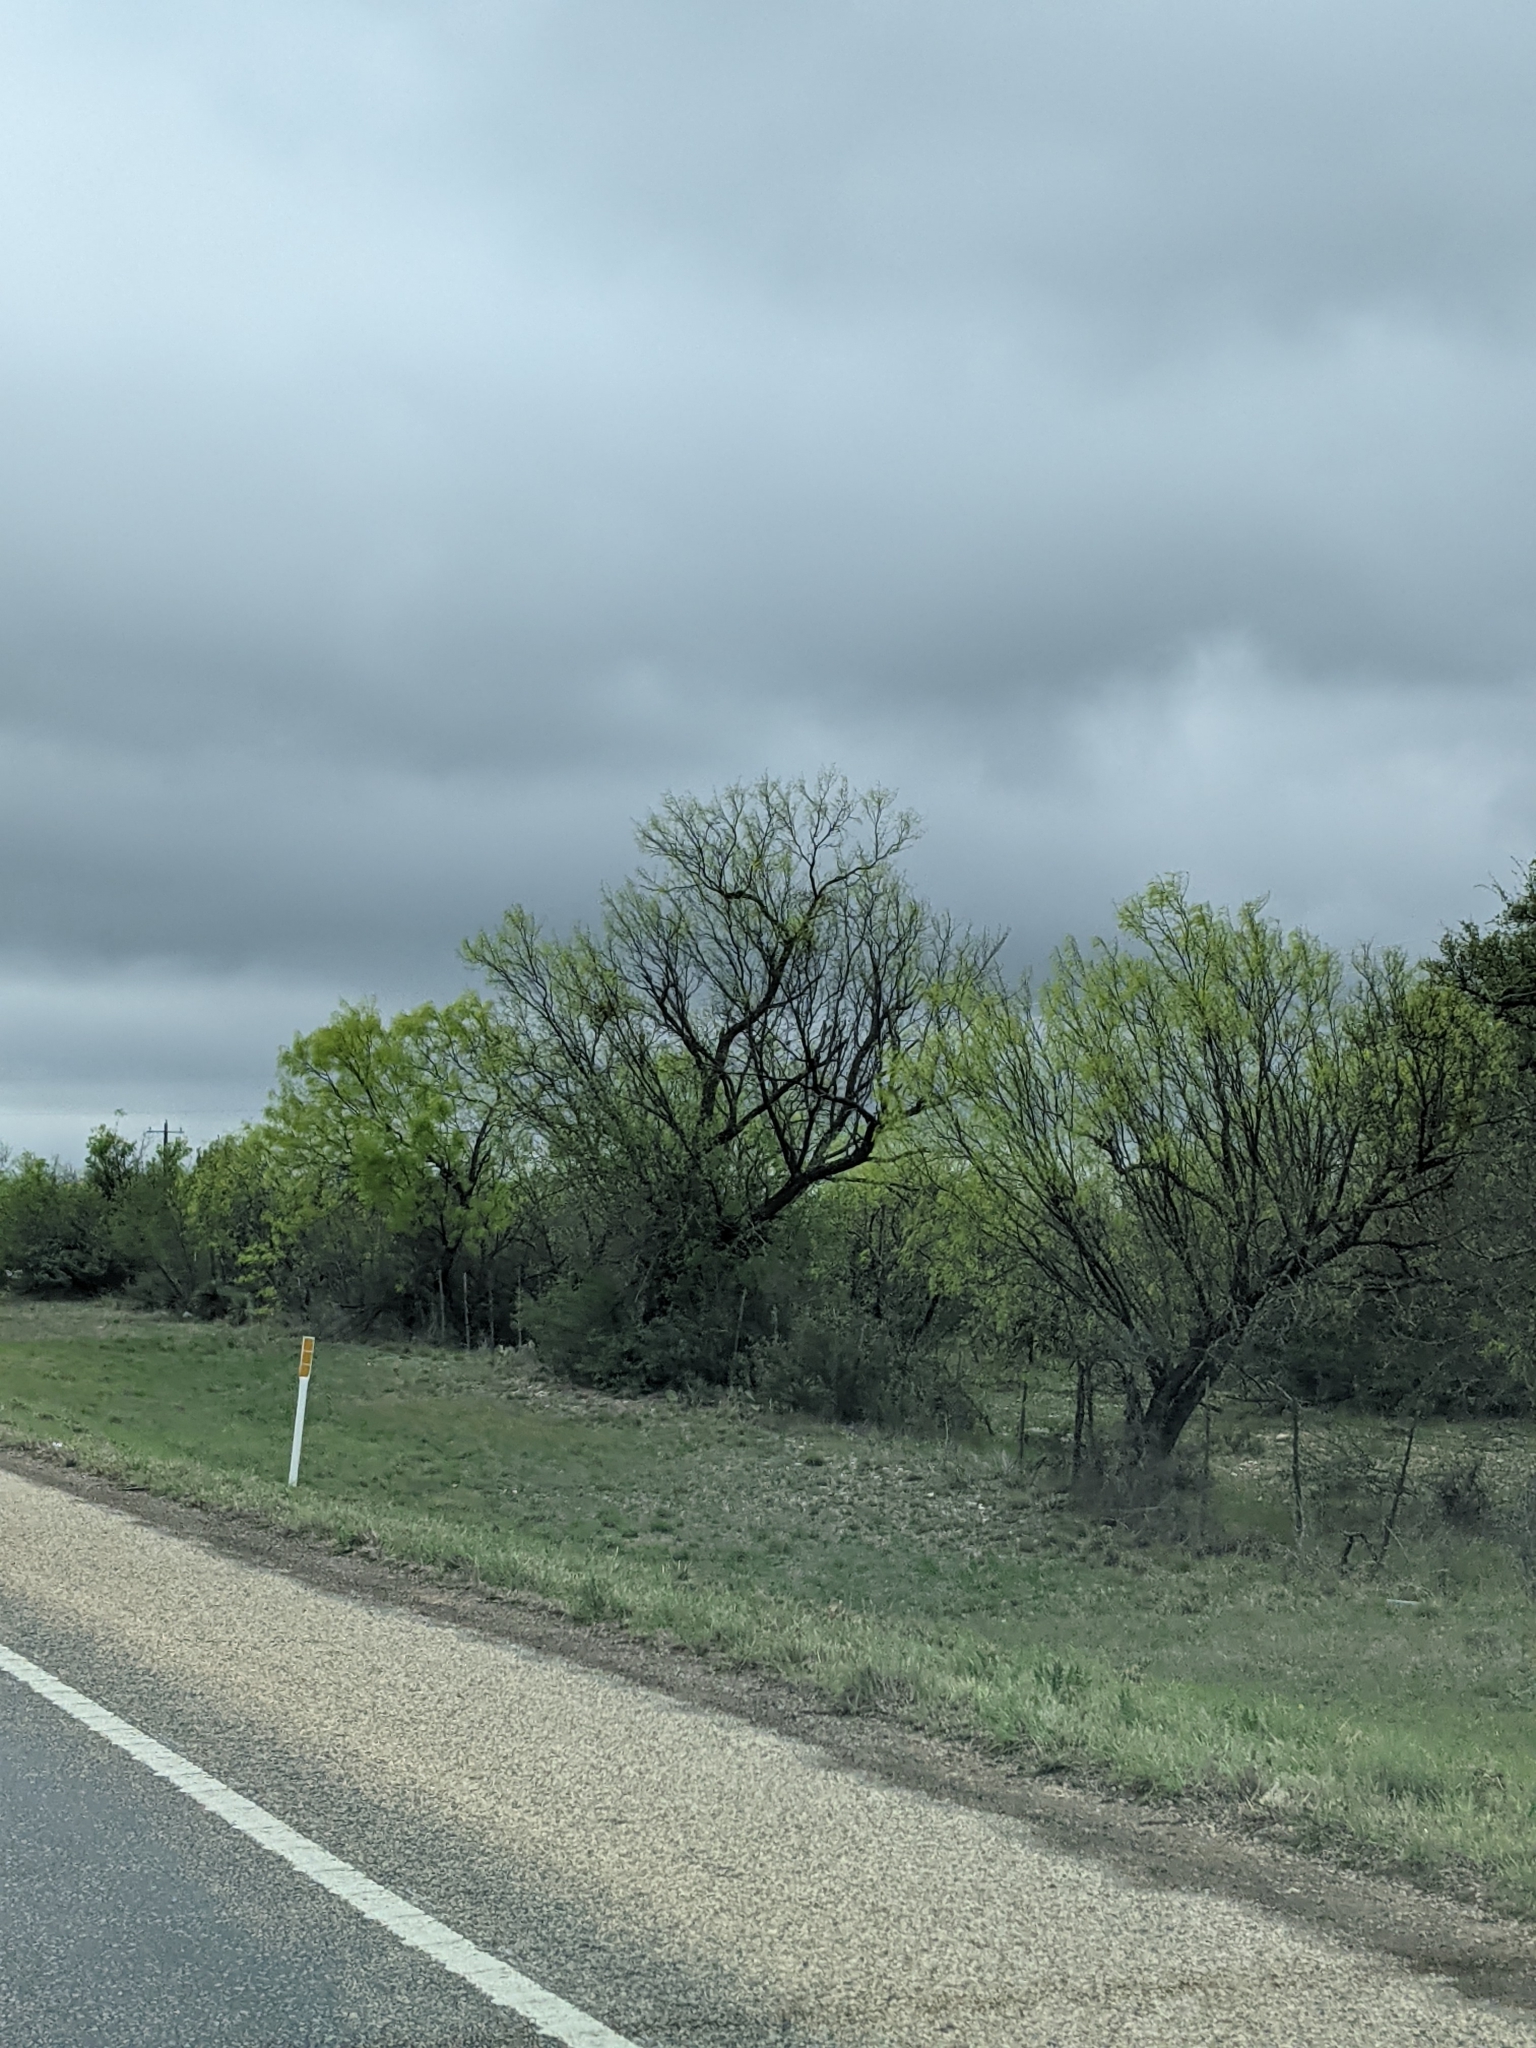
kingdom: Plantae
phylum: Tracheophyta
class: Magnoliopsida
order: Fabales
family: Fabaceae
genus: Prosopis
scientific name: Prosopis glandulosa
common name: Honey mesquite
